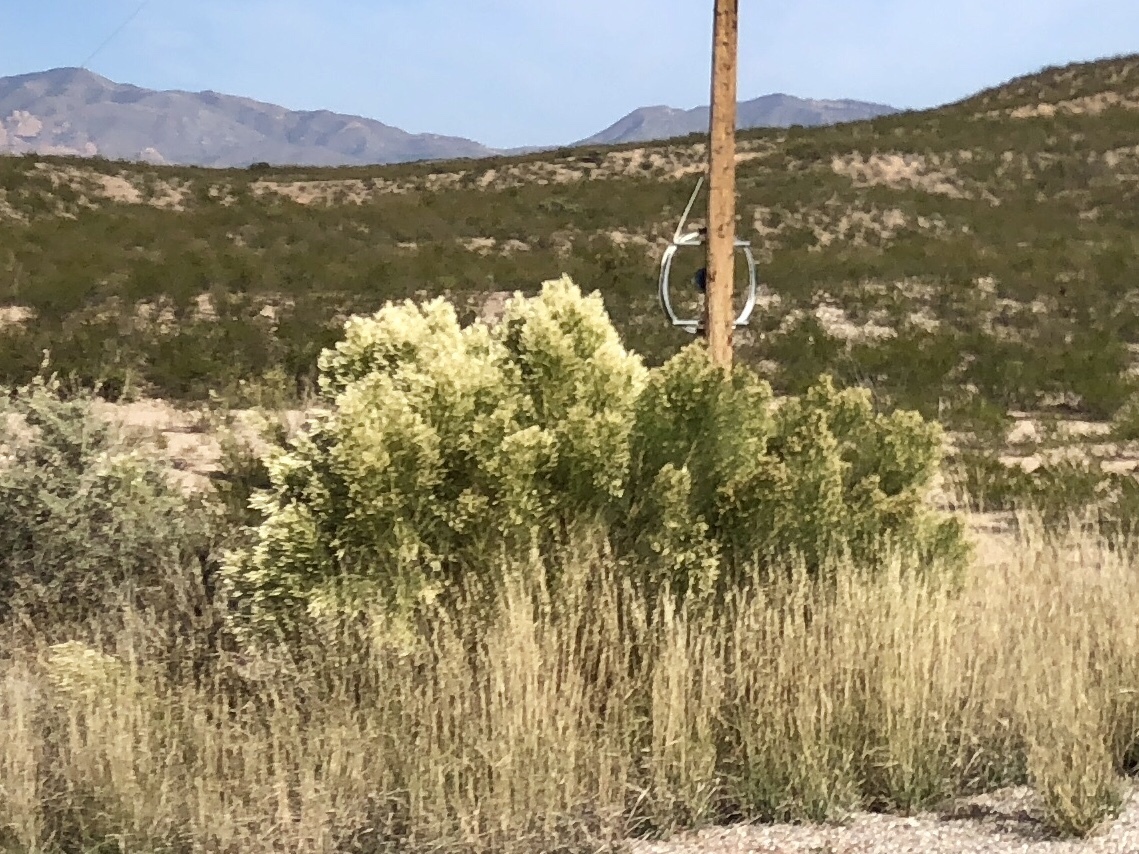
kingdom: Plantae
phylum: Tracheophyta
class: Magnoliopsida
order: Asterales
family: Asteraceae
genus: Baccharis
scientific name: Baccharis sarothroides
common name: Desert-broom
